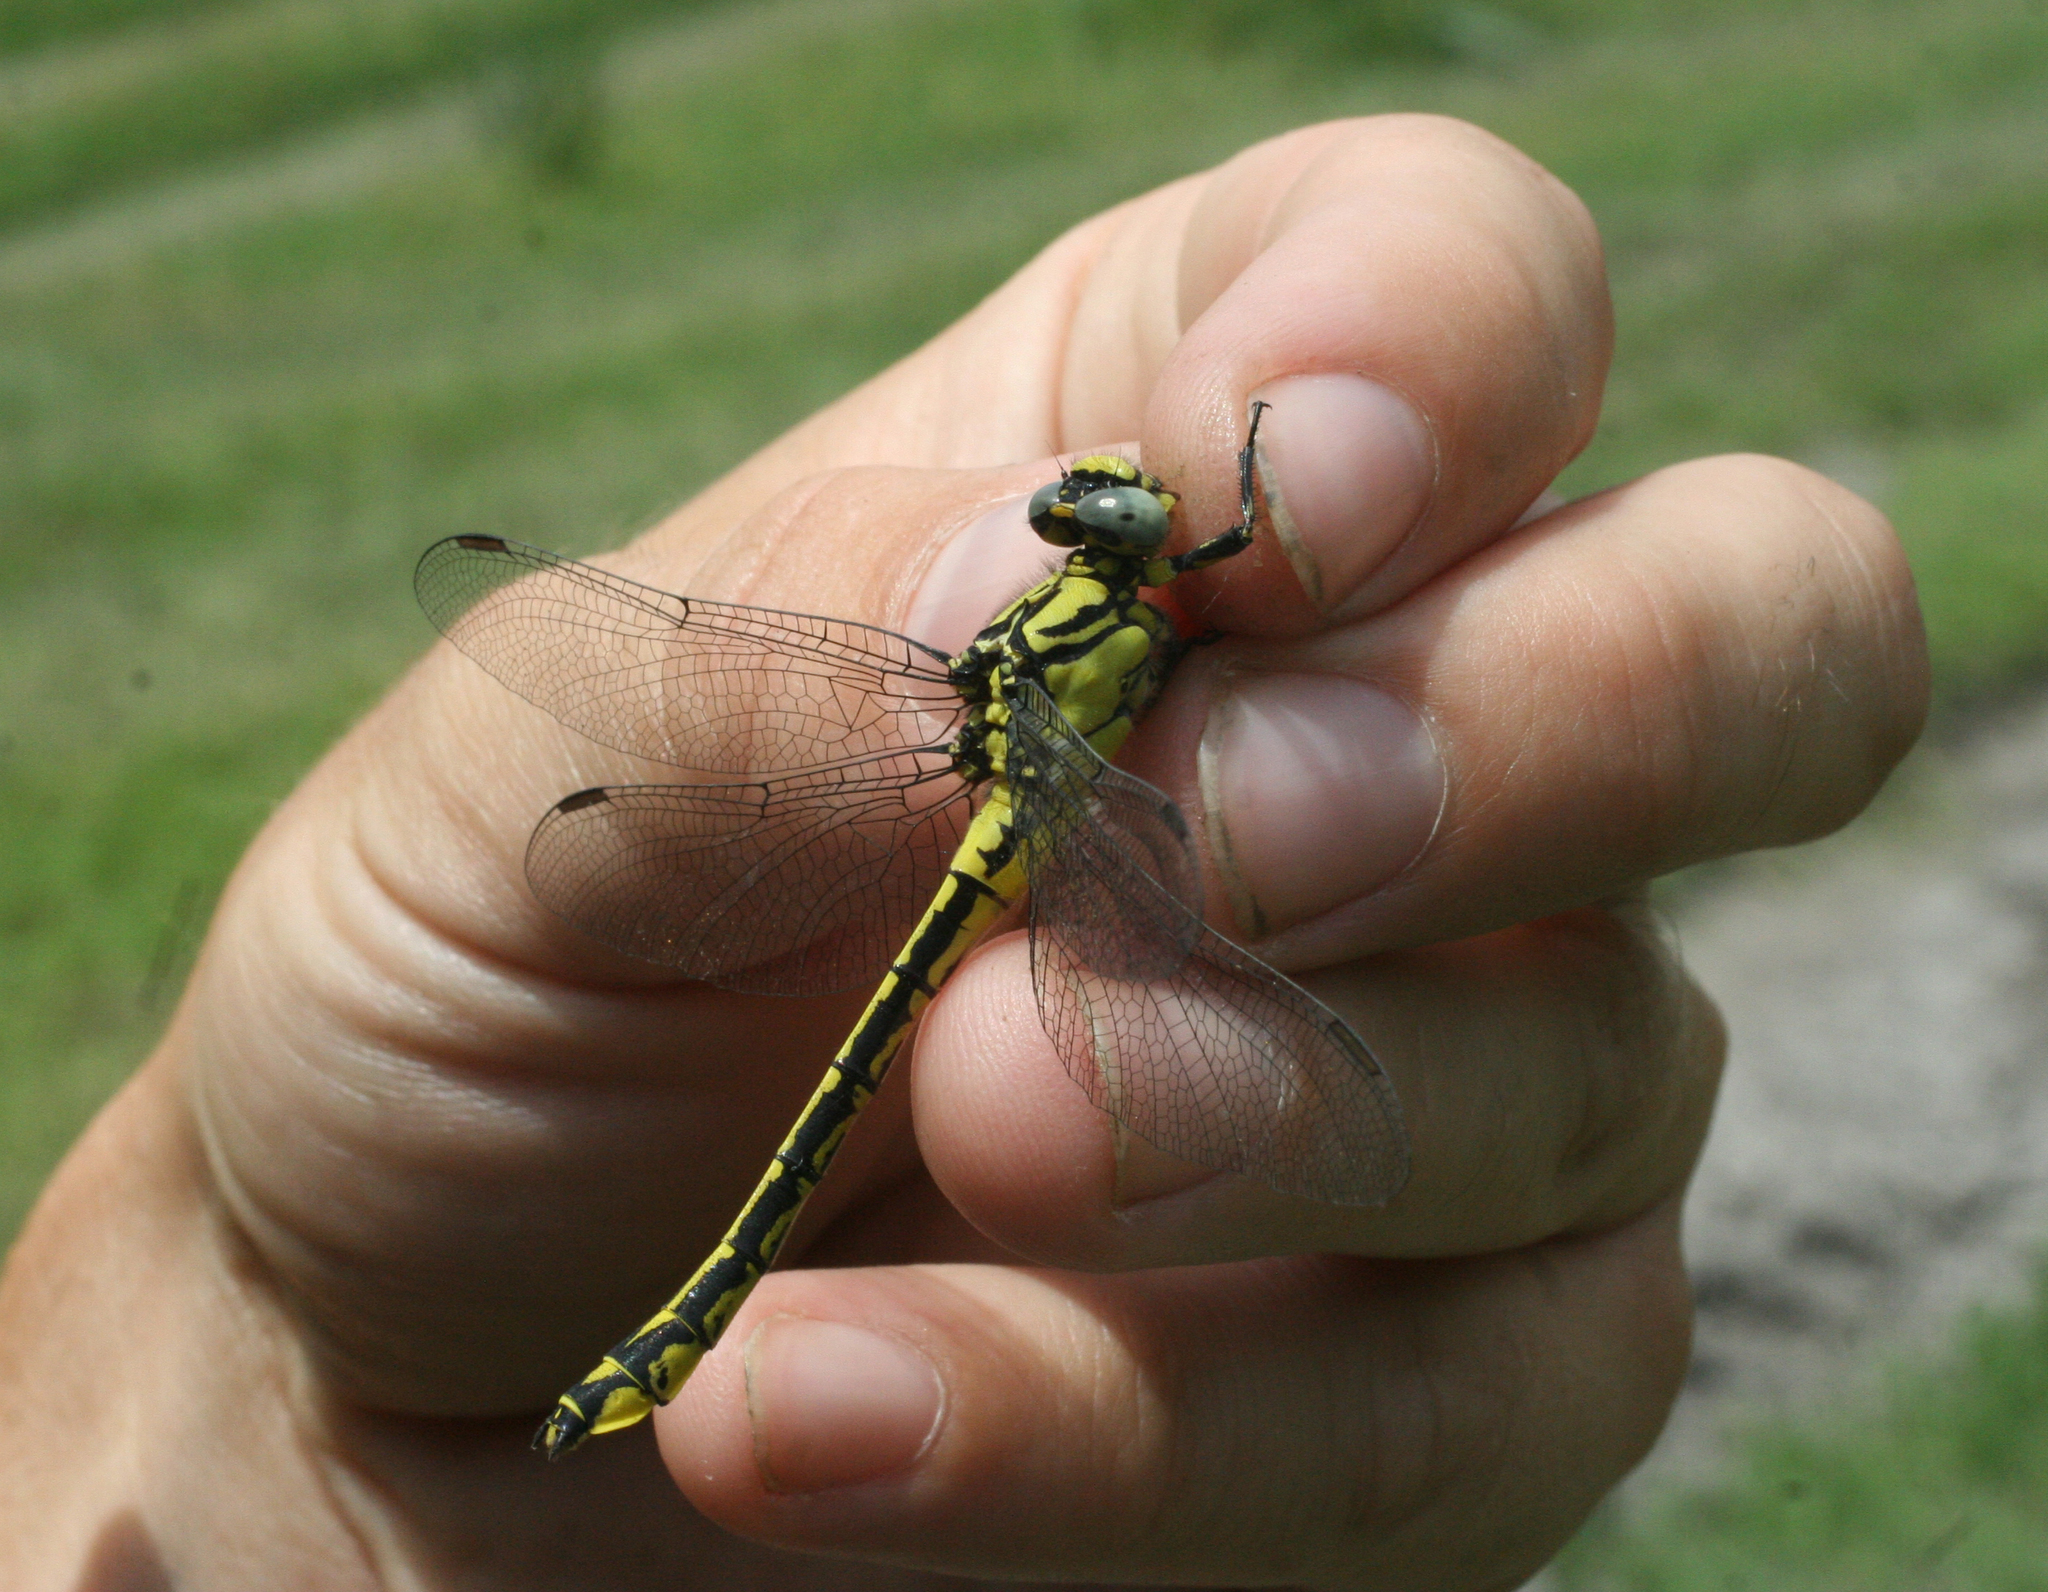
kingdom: Animalia
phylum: Arthropoda
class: Insecta
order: Odonata
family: Gomphidae
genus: Gomphus
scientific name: Gomphus schneiderii
